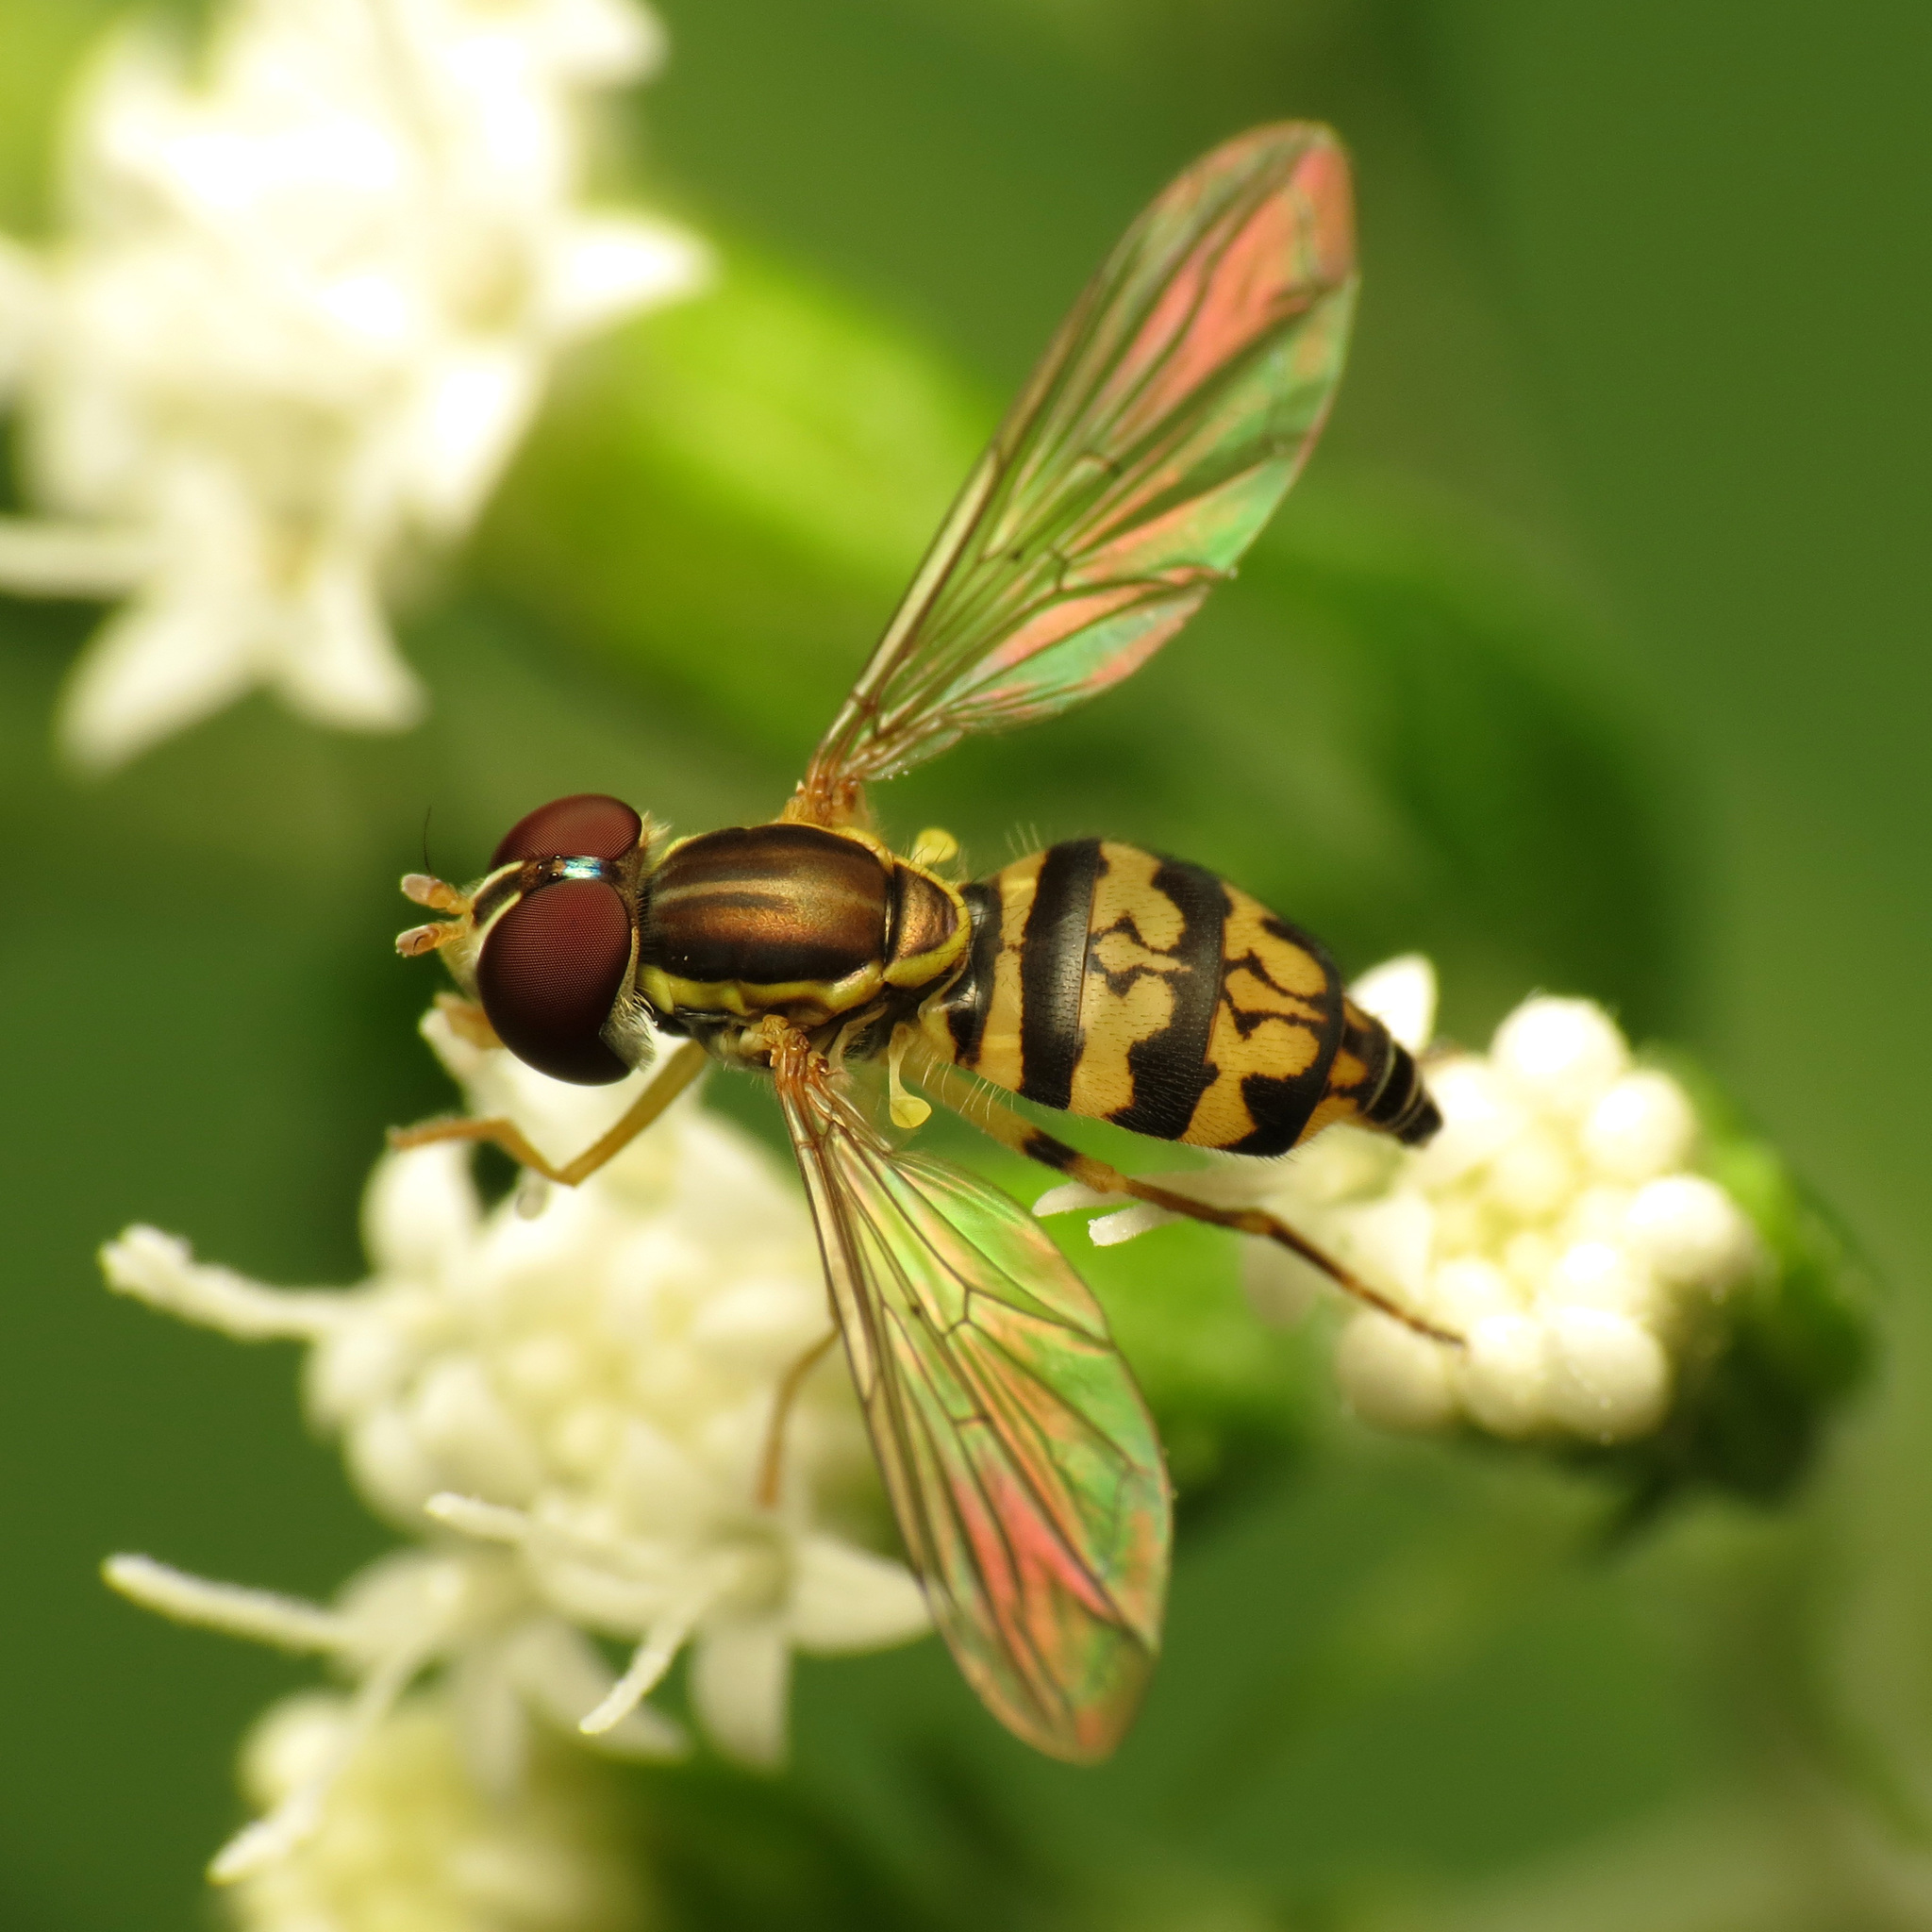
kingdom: Animalia
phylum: Arthropoda
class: Insecta
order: Diptera
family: Syrphidae
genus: Toxomerus
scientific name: Toxomerus geminatus
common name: Eastern calligrapher
